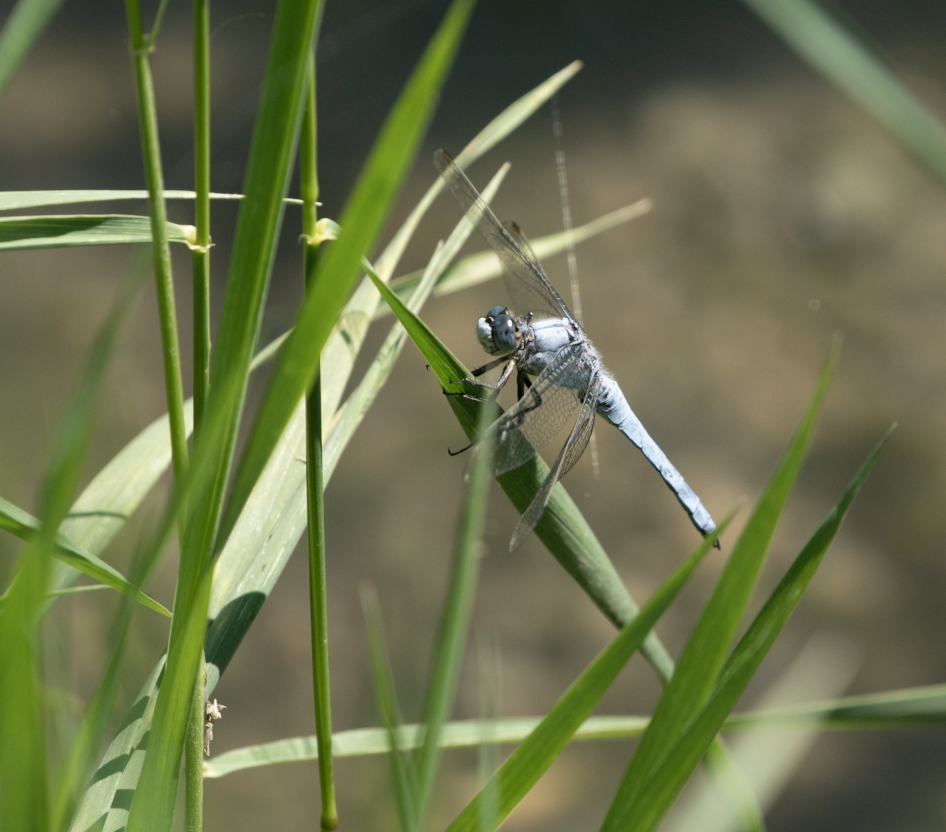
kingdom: Animalia
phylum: Arthropoda
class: Insecta
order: Odonata
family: Libellulidae
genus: Orthetrum
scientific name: Orthetrum brunneum
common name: Southern skimmer
